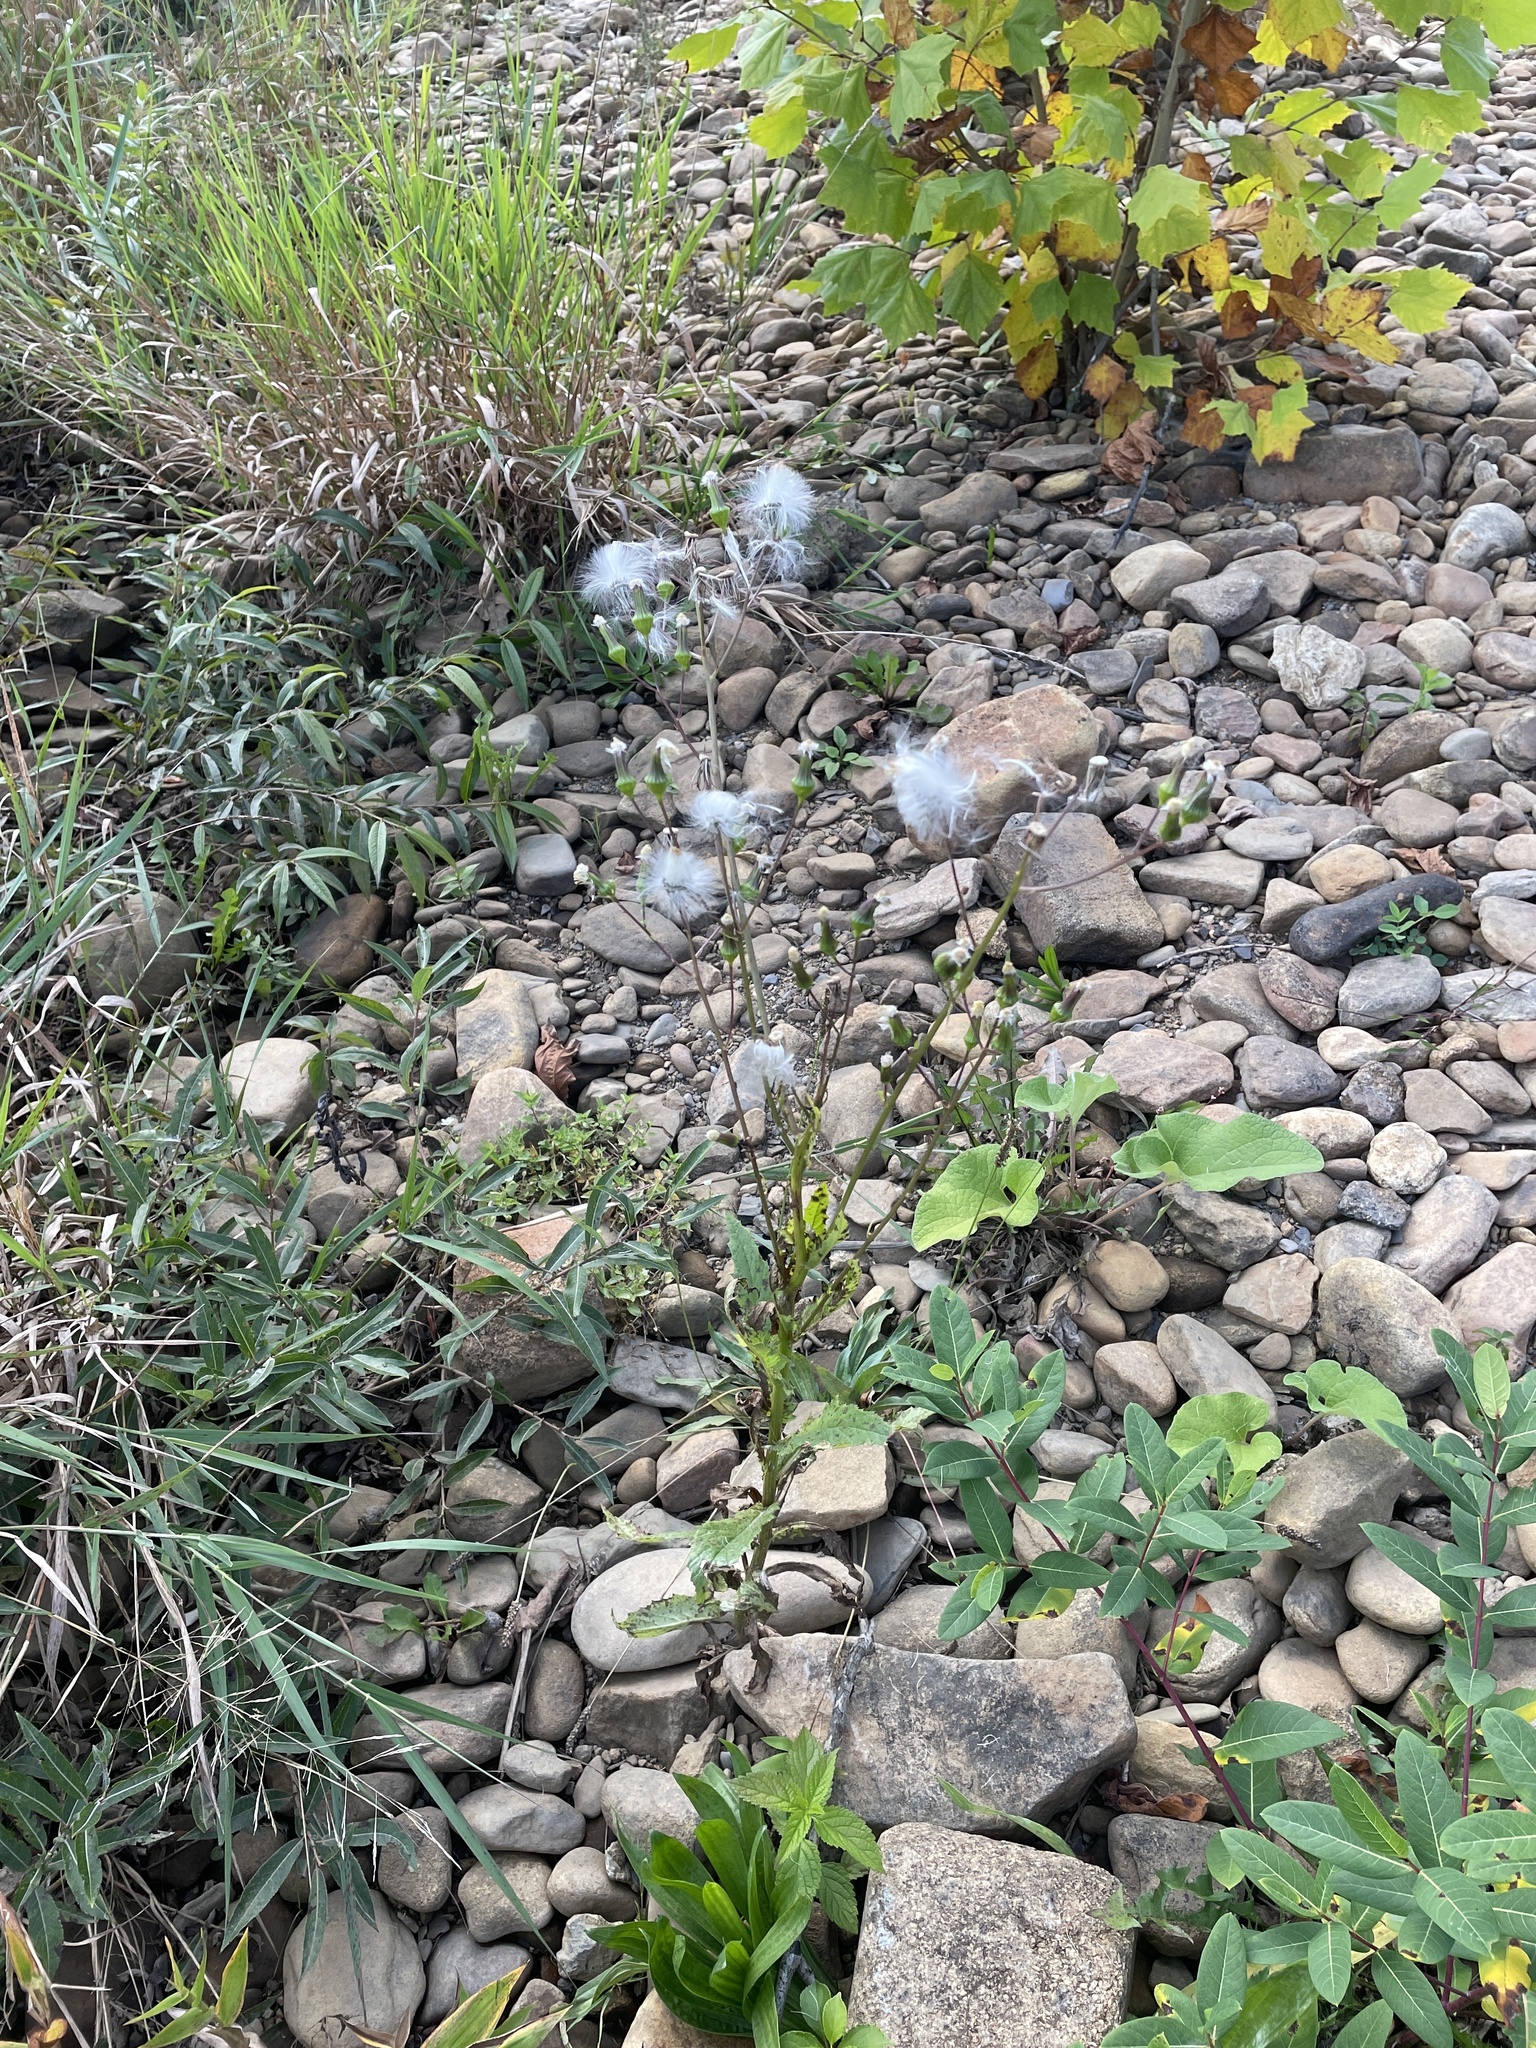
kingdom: Plantae
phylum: Tracheophyta
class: Magnoliopsida
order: Asterales
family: Asteraceae
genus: Erechtites
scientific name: Erechtites hieraciifolius
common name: American burnweed
